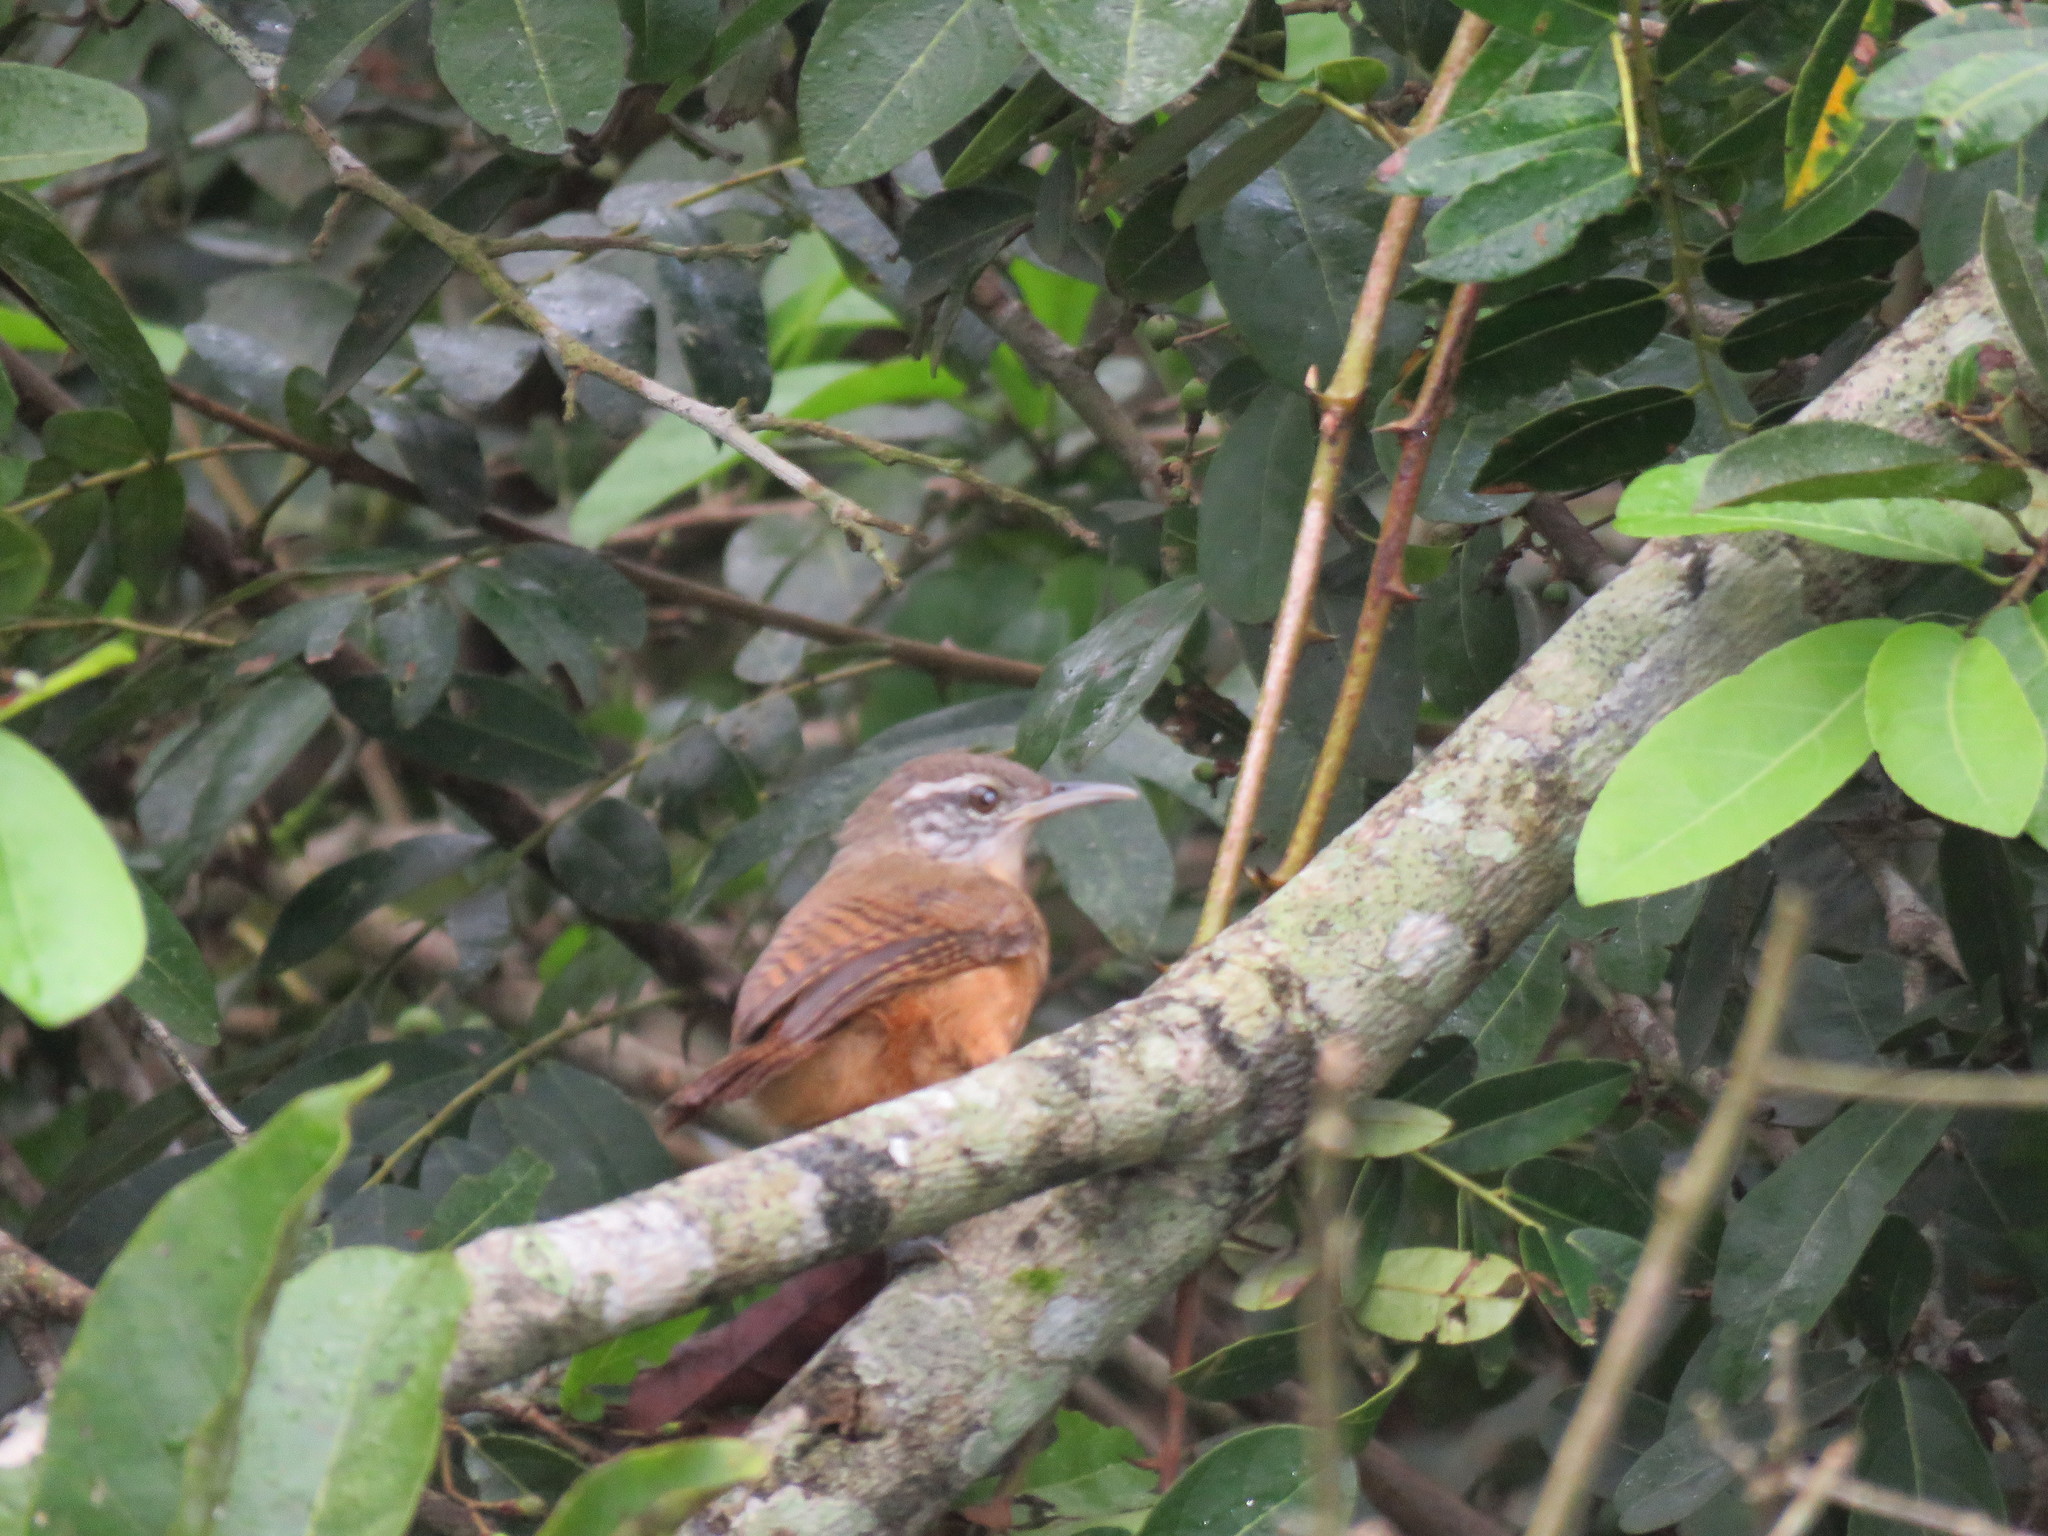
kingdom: Animalia
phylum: Chordata
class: Aves
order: Passeriformes
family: Troglodytidae
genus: Cantorchilus
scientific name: Cantorchilus leucotis
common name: Buff-breasted wren
